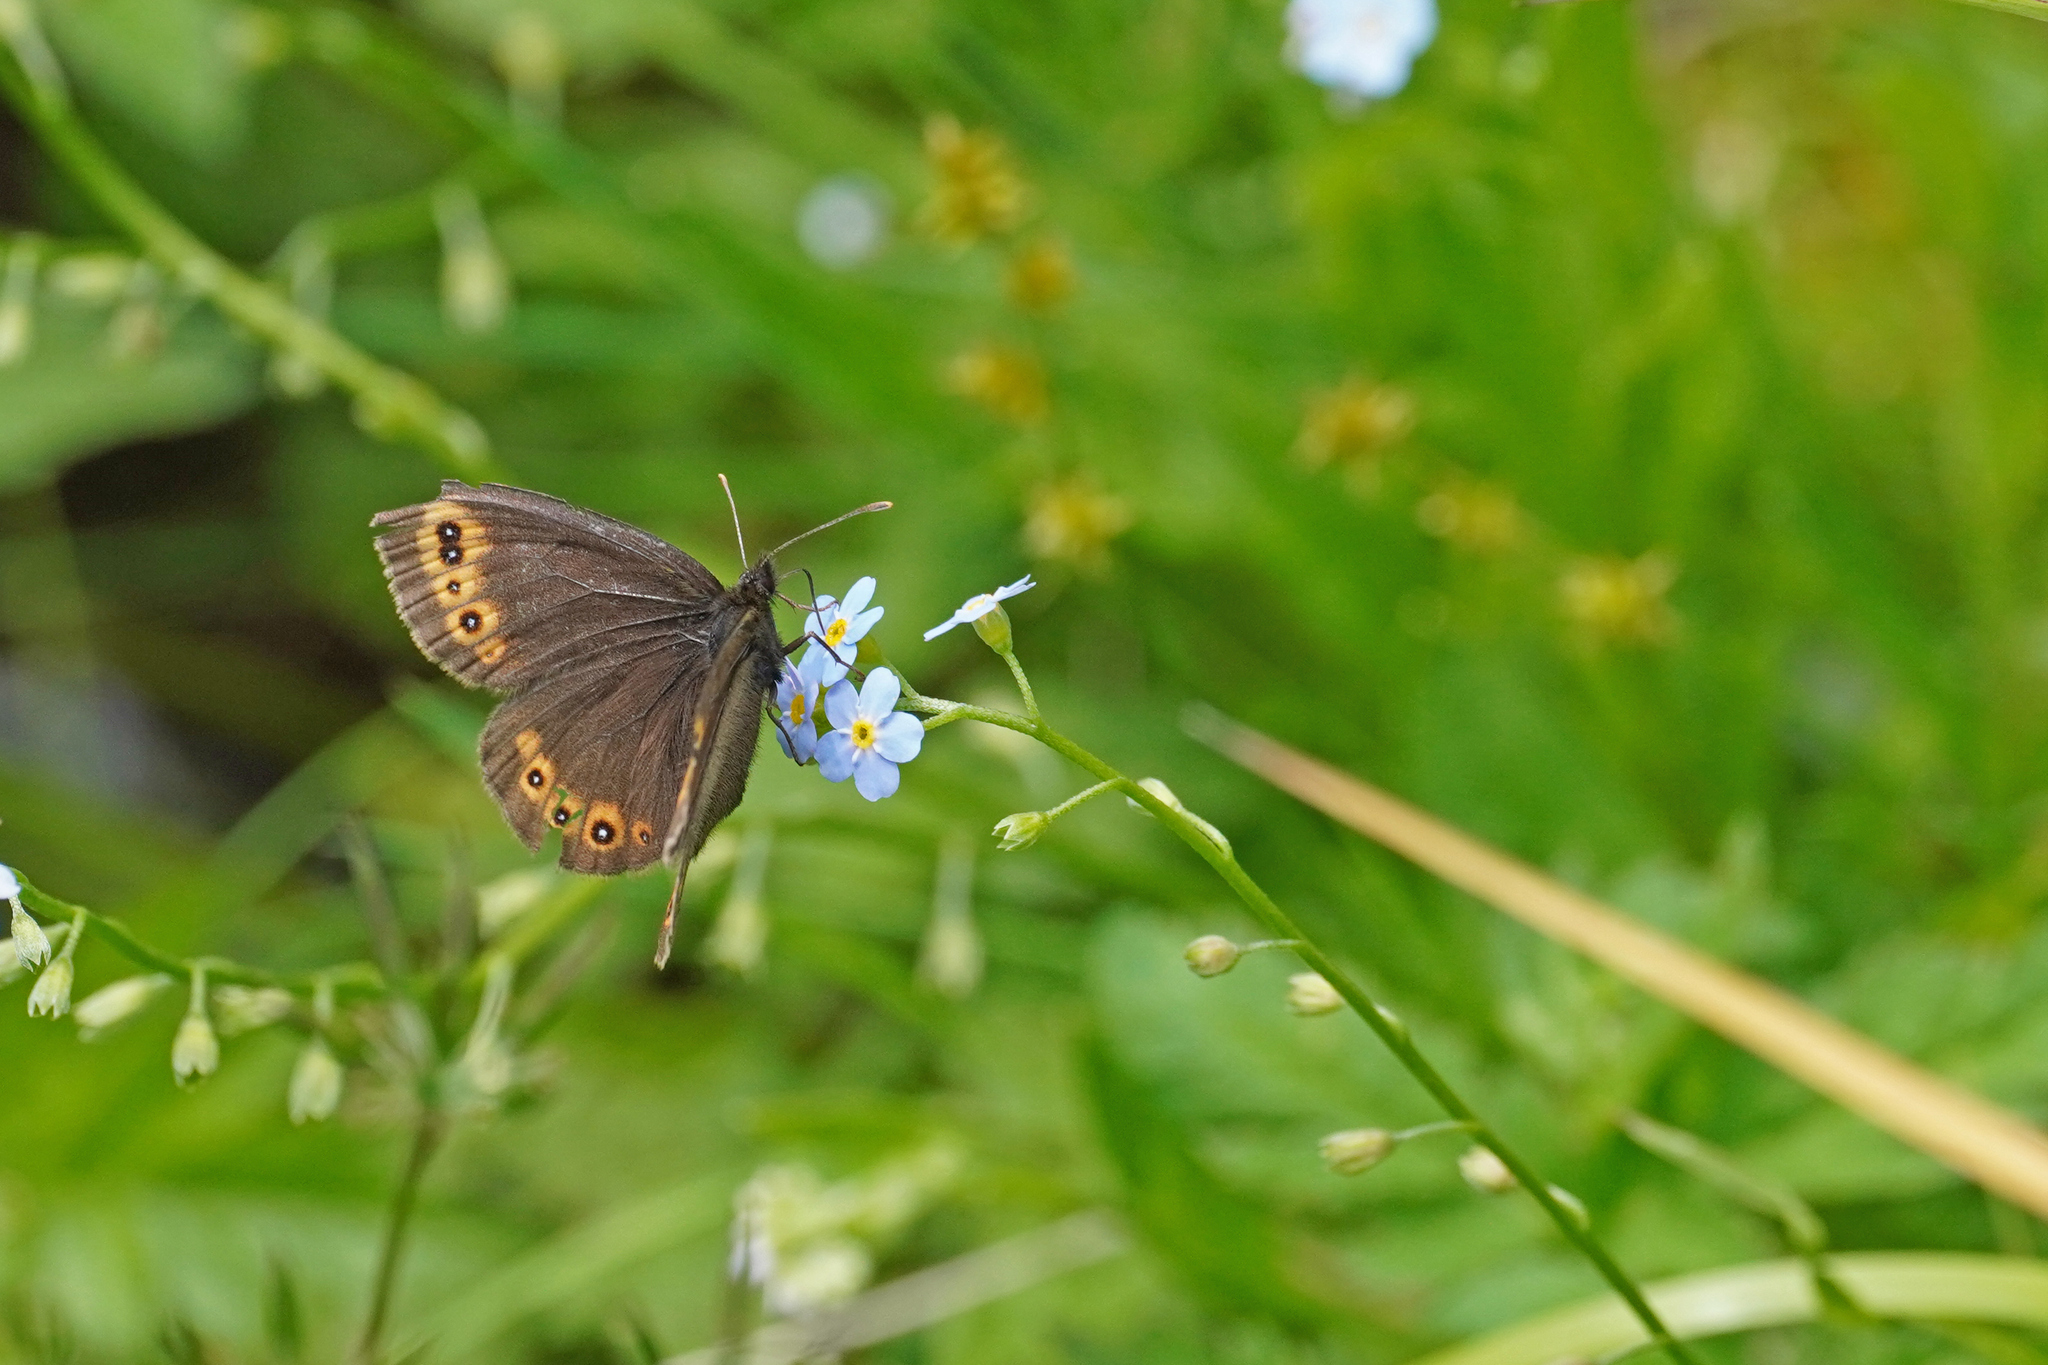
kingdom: Animalia
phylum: Arthropoda
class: Insecta
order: Lepidoptera
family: Nymphalidae
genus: Erebia
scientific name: Erebia medusa
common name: Woodland ringlet
